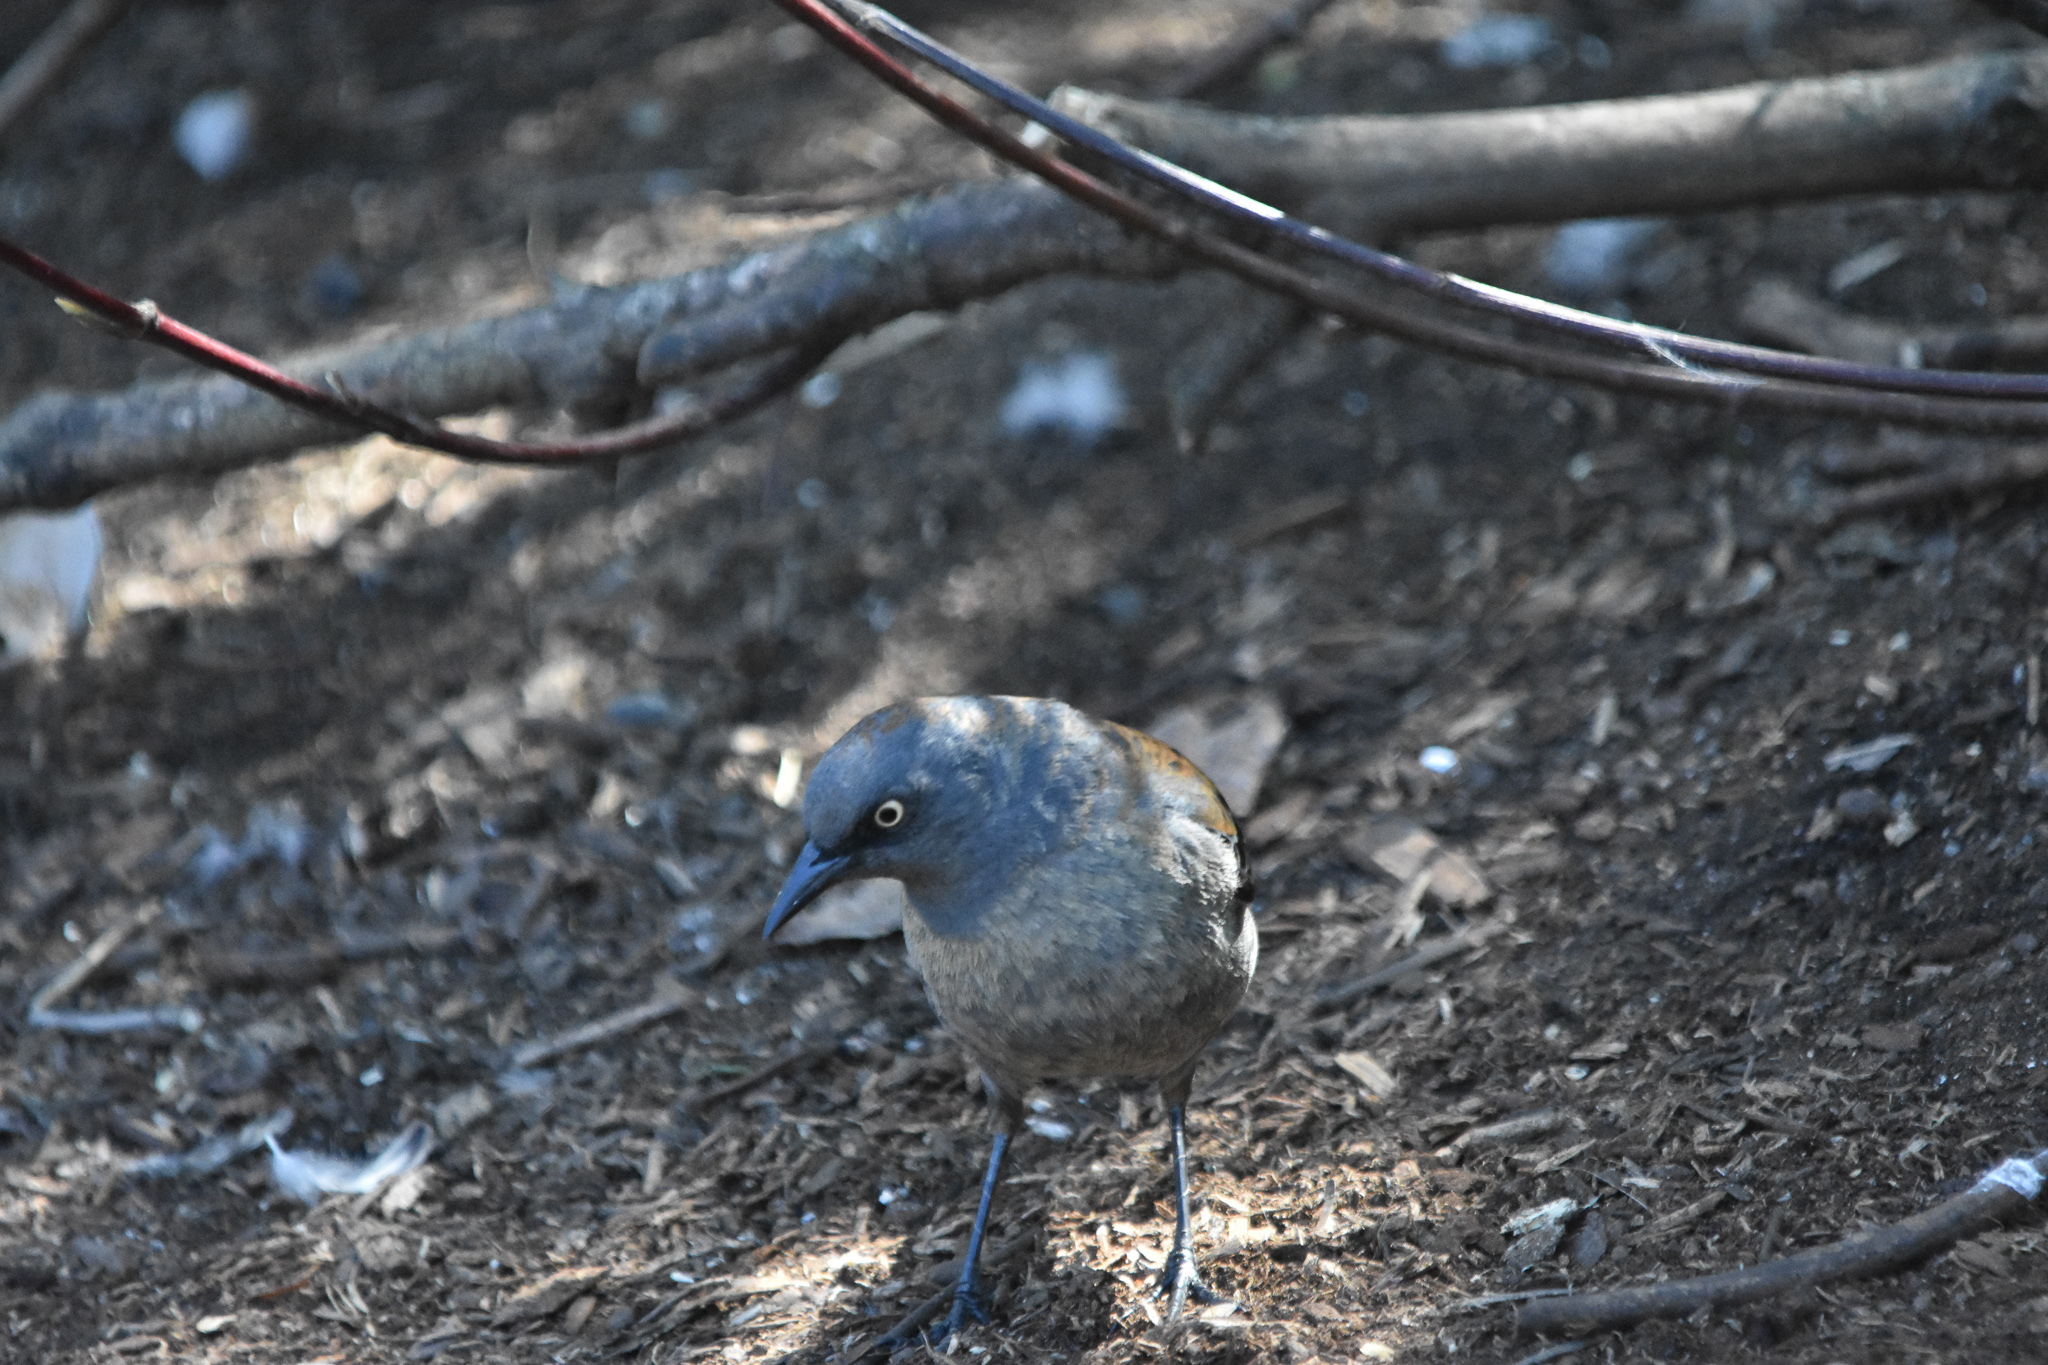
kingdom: Animalia
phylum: Chordata
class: Aves
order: Passeriformes
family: Icteridae
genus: Euphagus
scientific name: Euphagus carolinus
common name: Rusty blackbird
